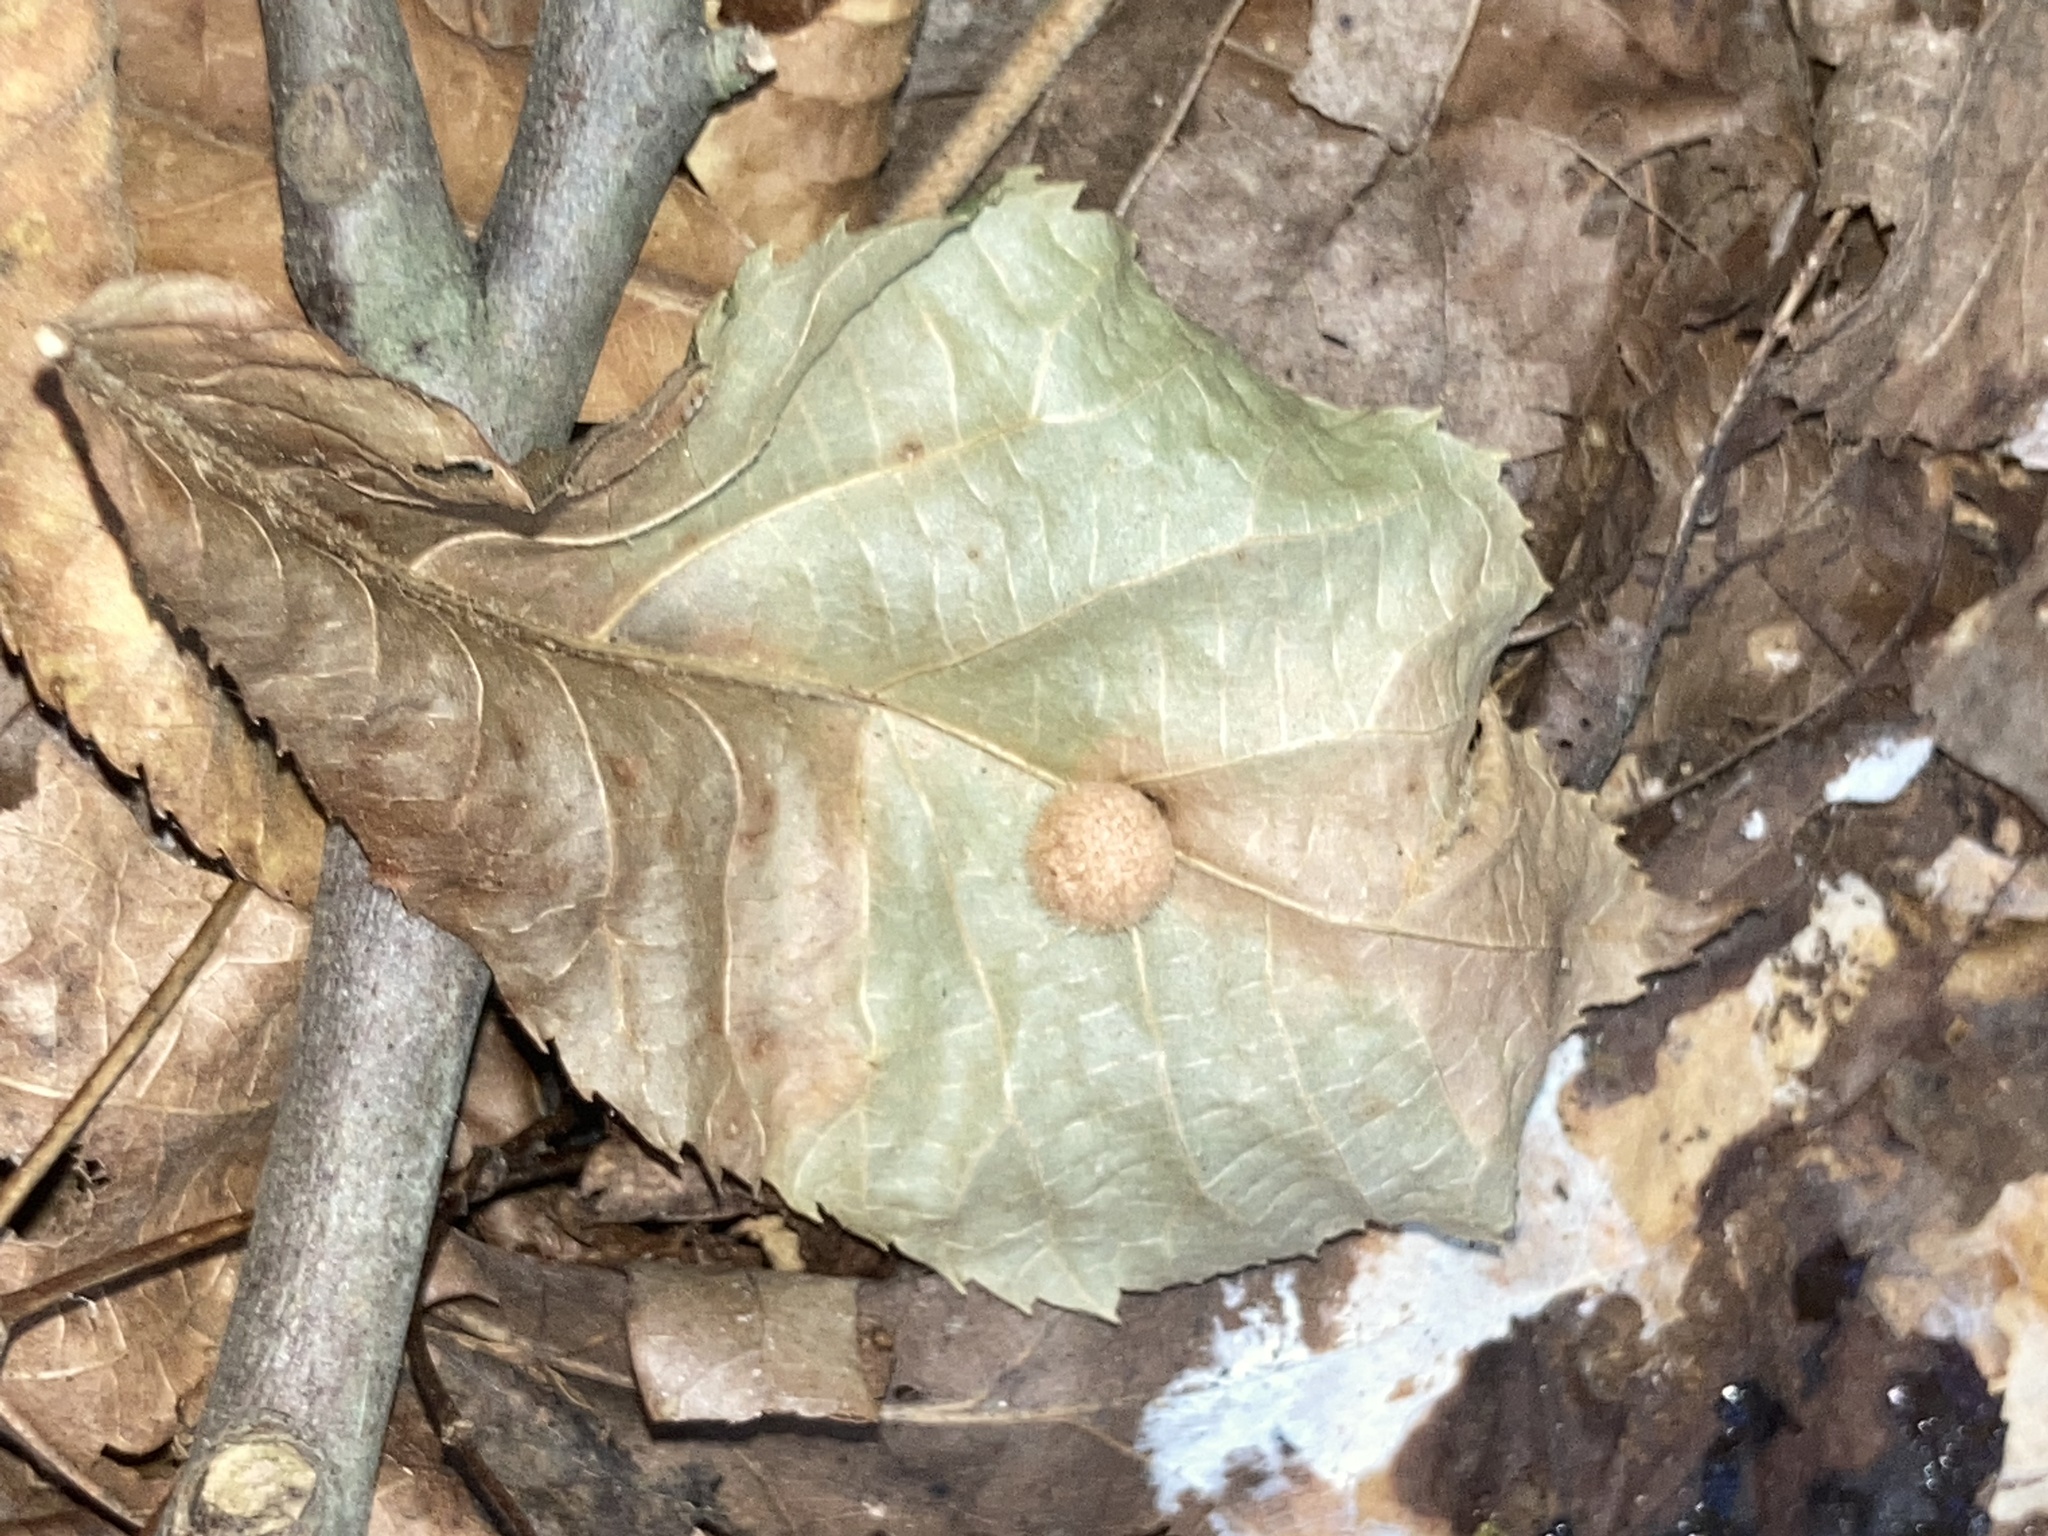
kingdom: Animalia
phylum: Arthropoda
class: Insecta
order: Hymenoptera
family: Cynipidae
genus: Philonix
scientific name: Philonix fulvicollis
